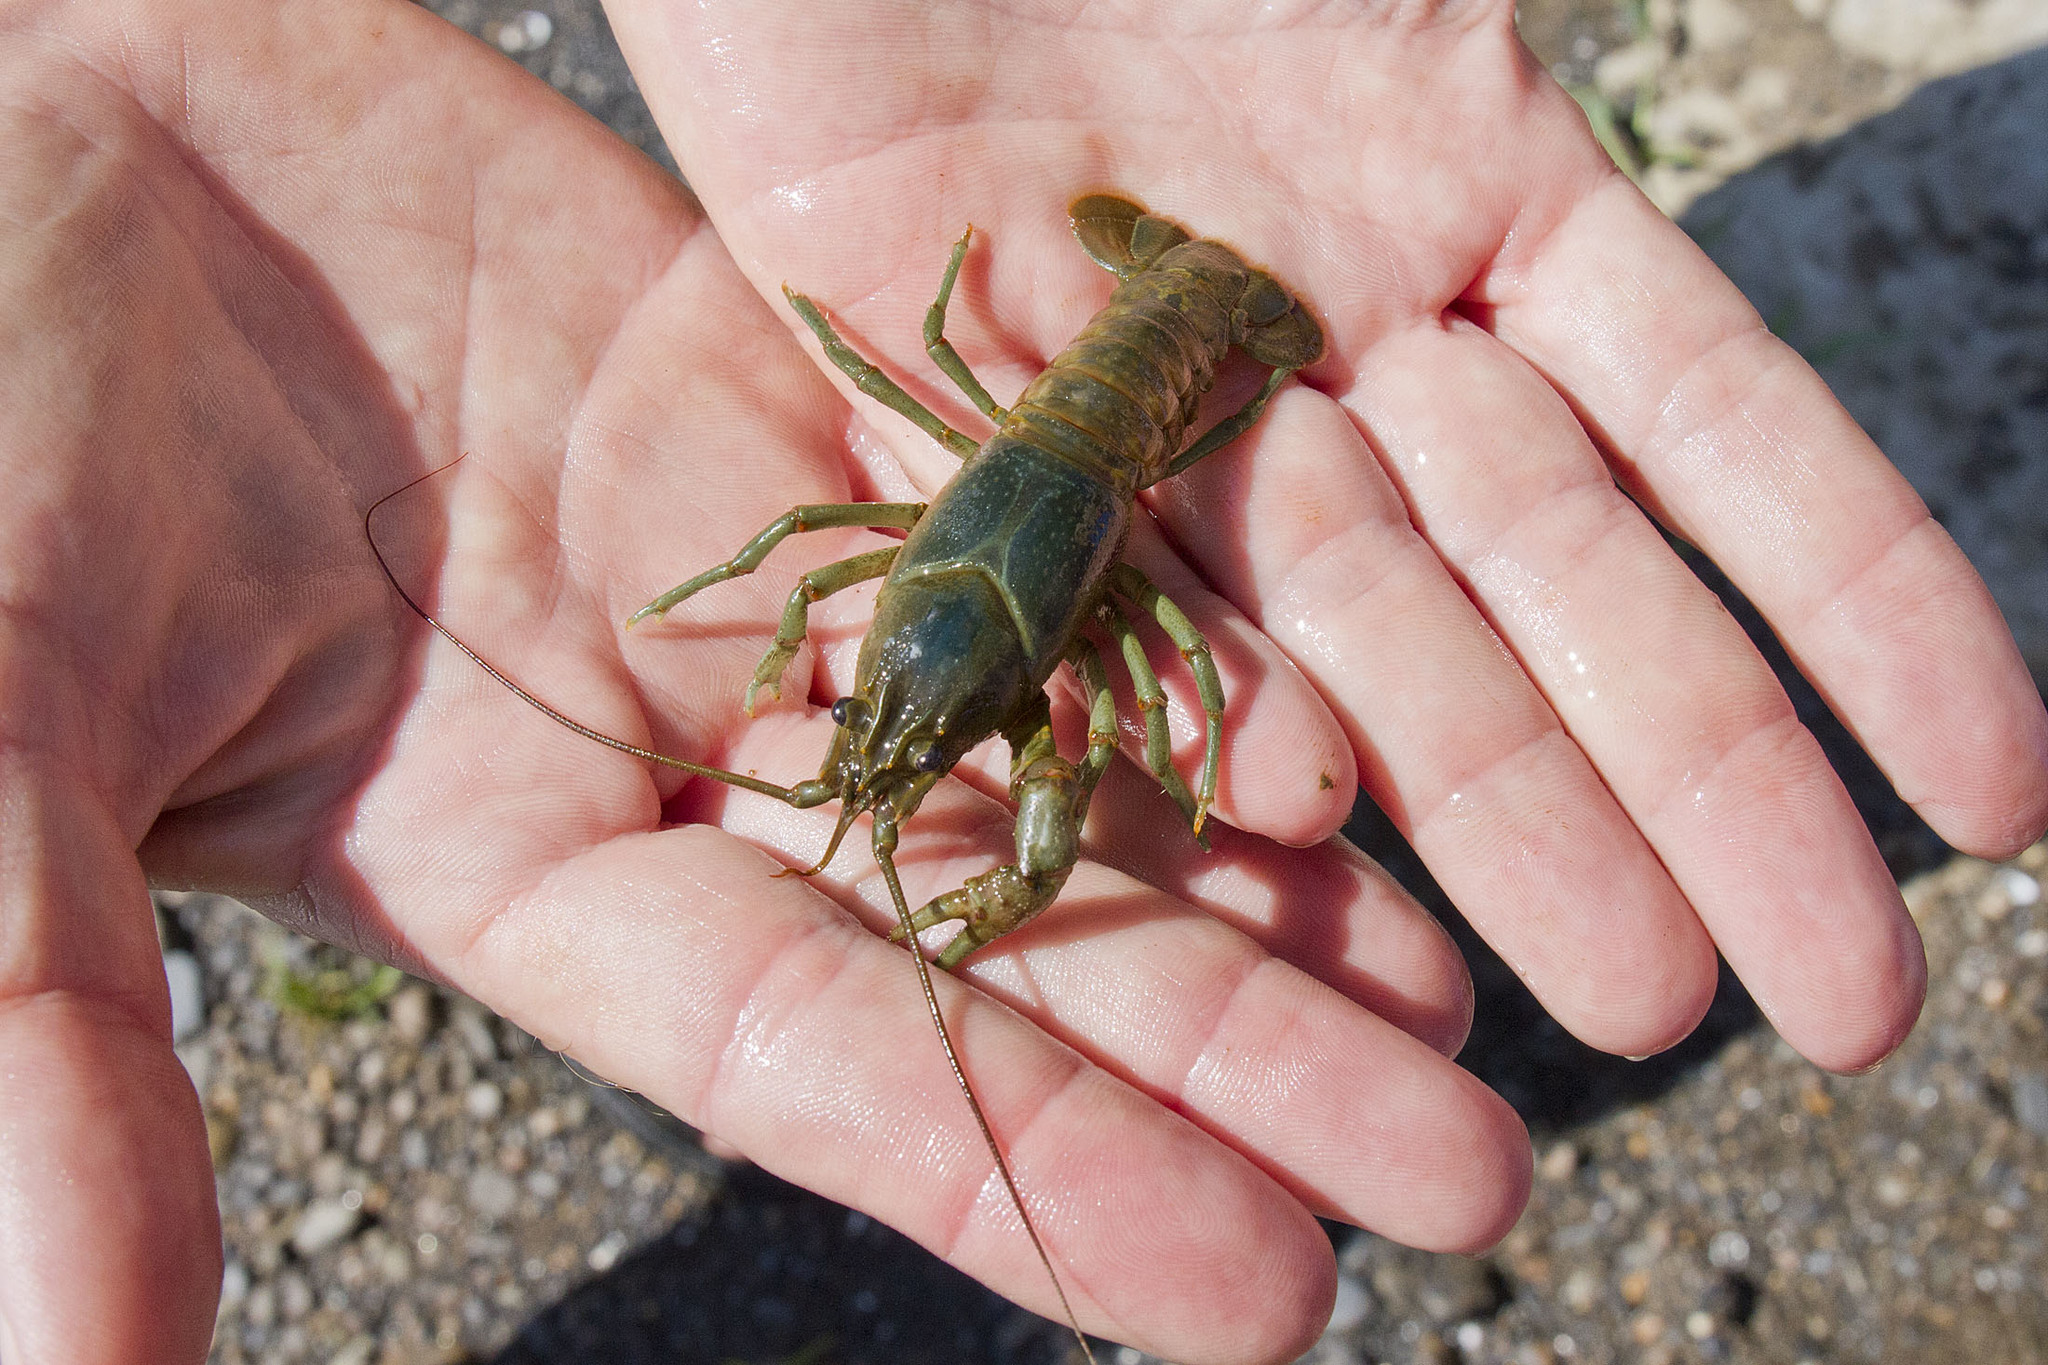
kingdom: Animalia
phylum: Arthropoda
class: Malacostraca
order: Decapoda
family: Cambaridae
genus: Faxonius
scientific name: Faxonius rusticus
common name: Rusty crayfish
